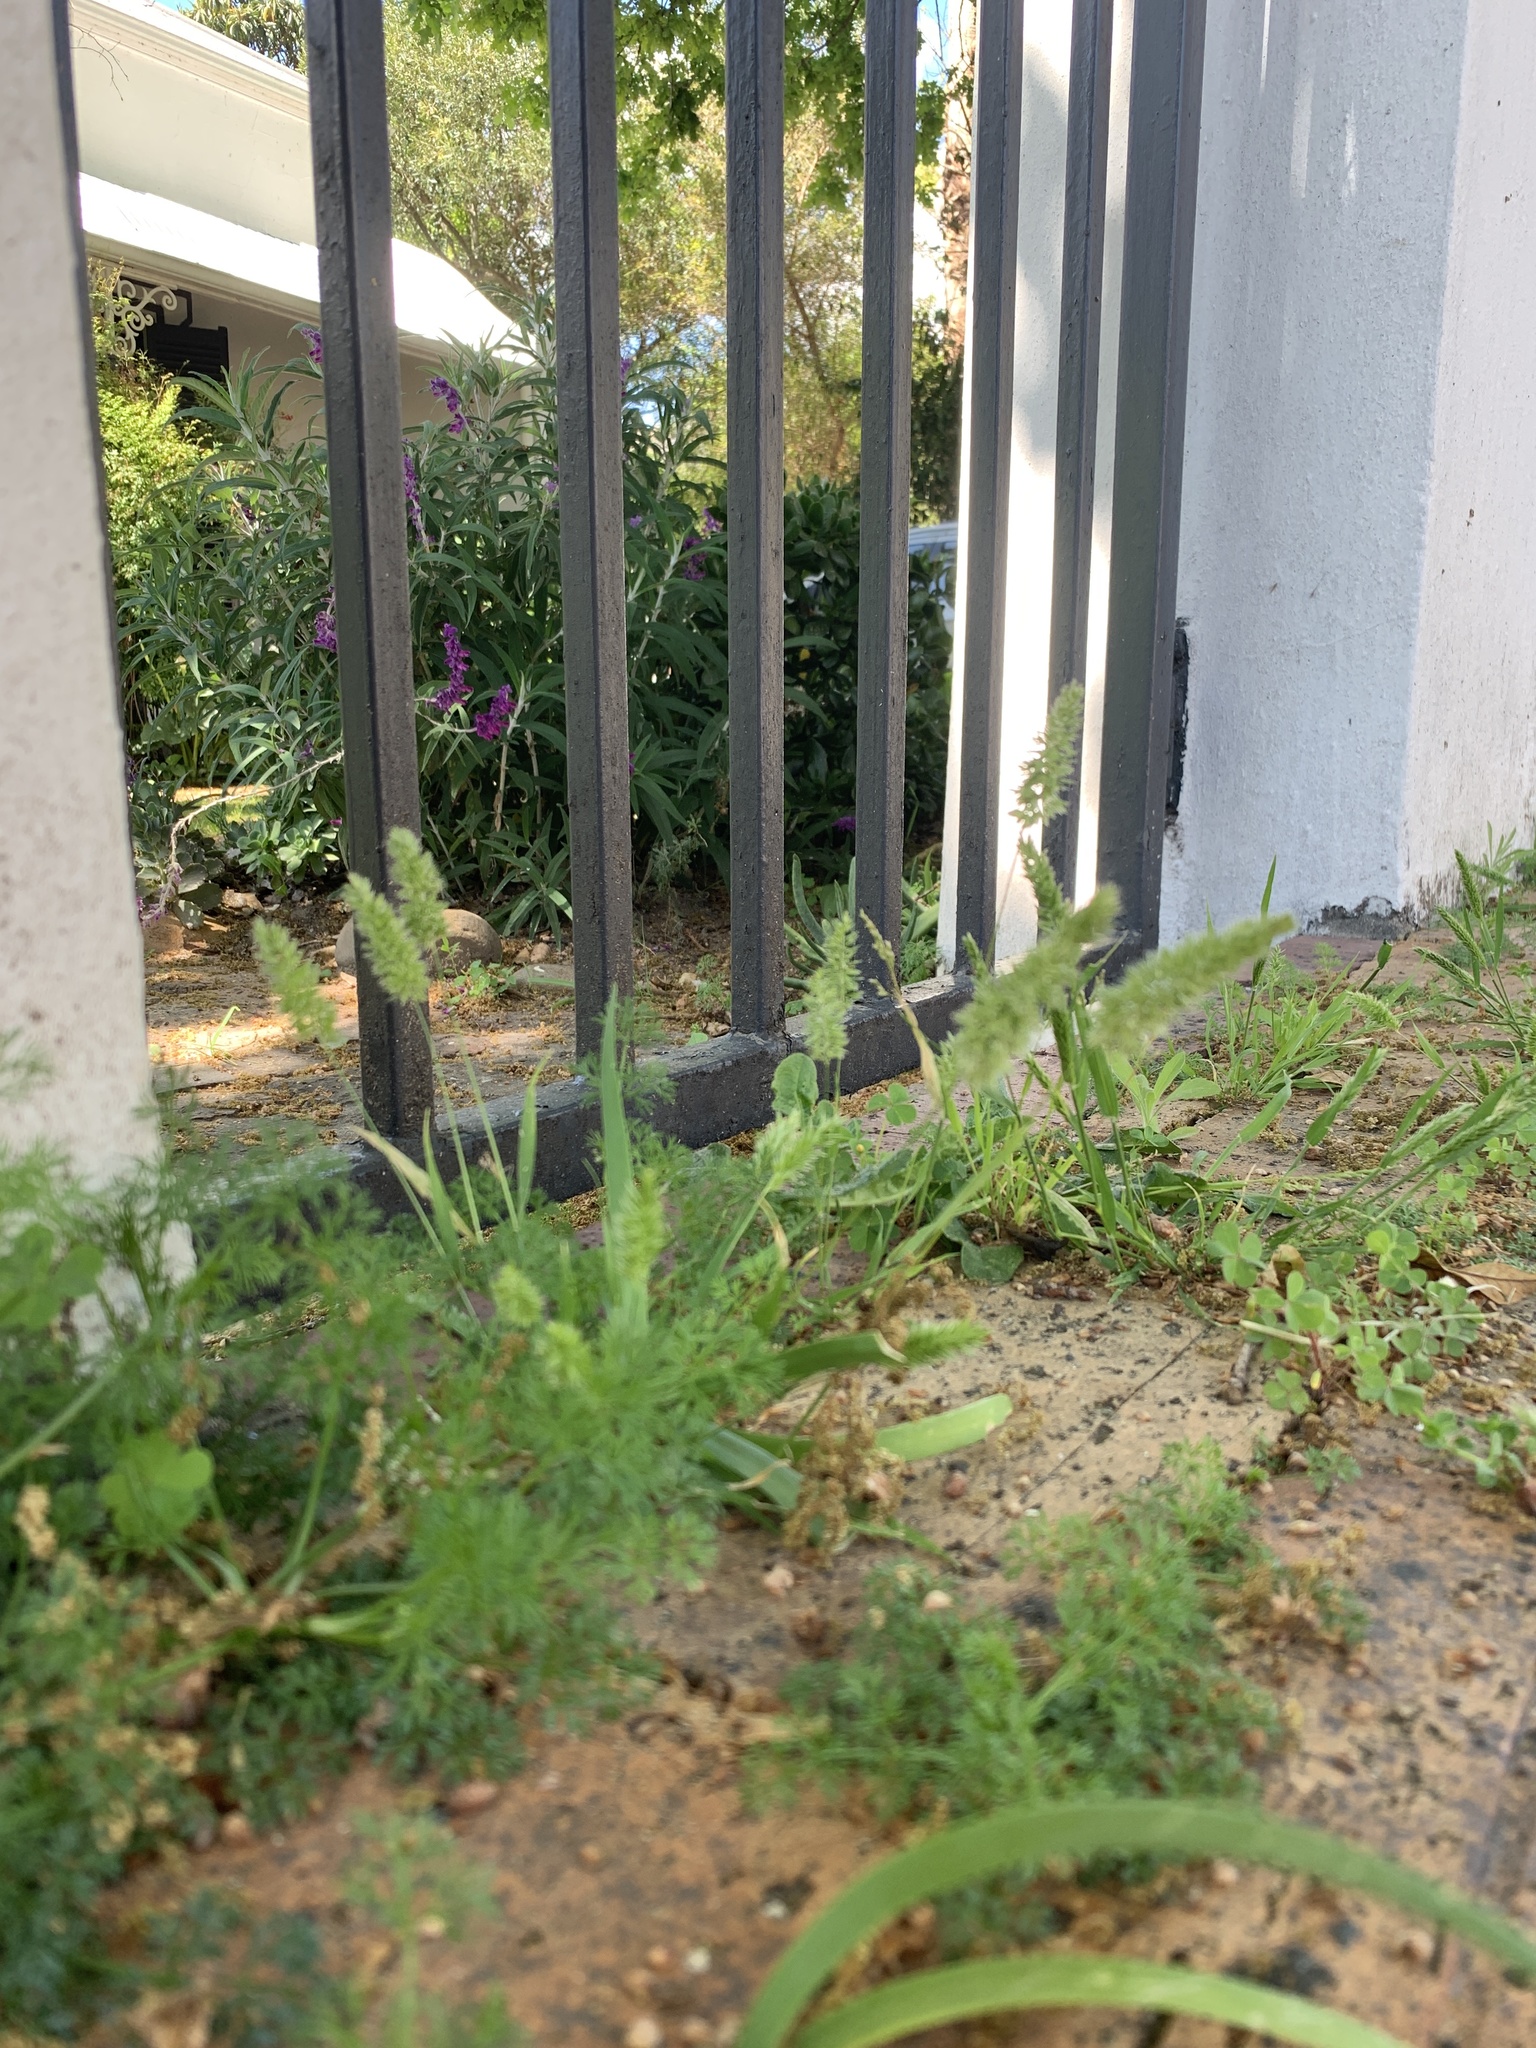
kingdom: Plantae
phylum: Tracheophyta
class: Liliopsida
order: Poales
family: Poaceae
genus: Rostraria
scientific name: Rostraria cristata
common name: Mediterranean hair-grass
